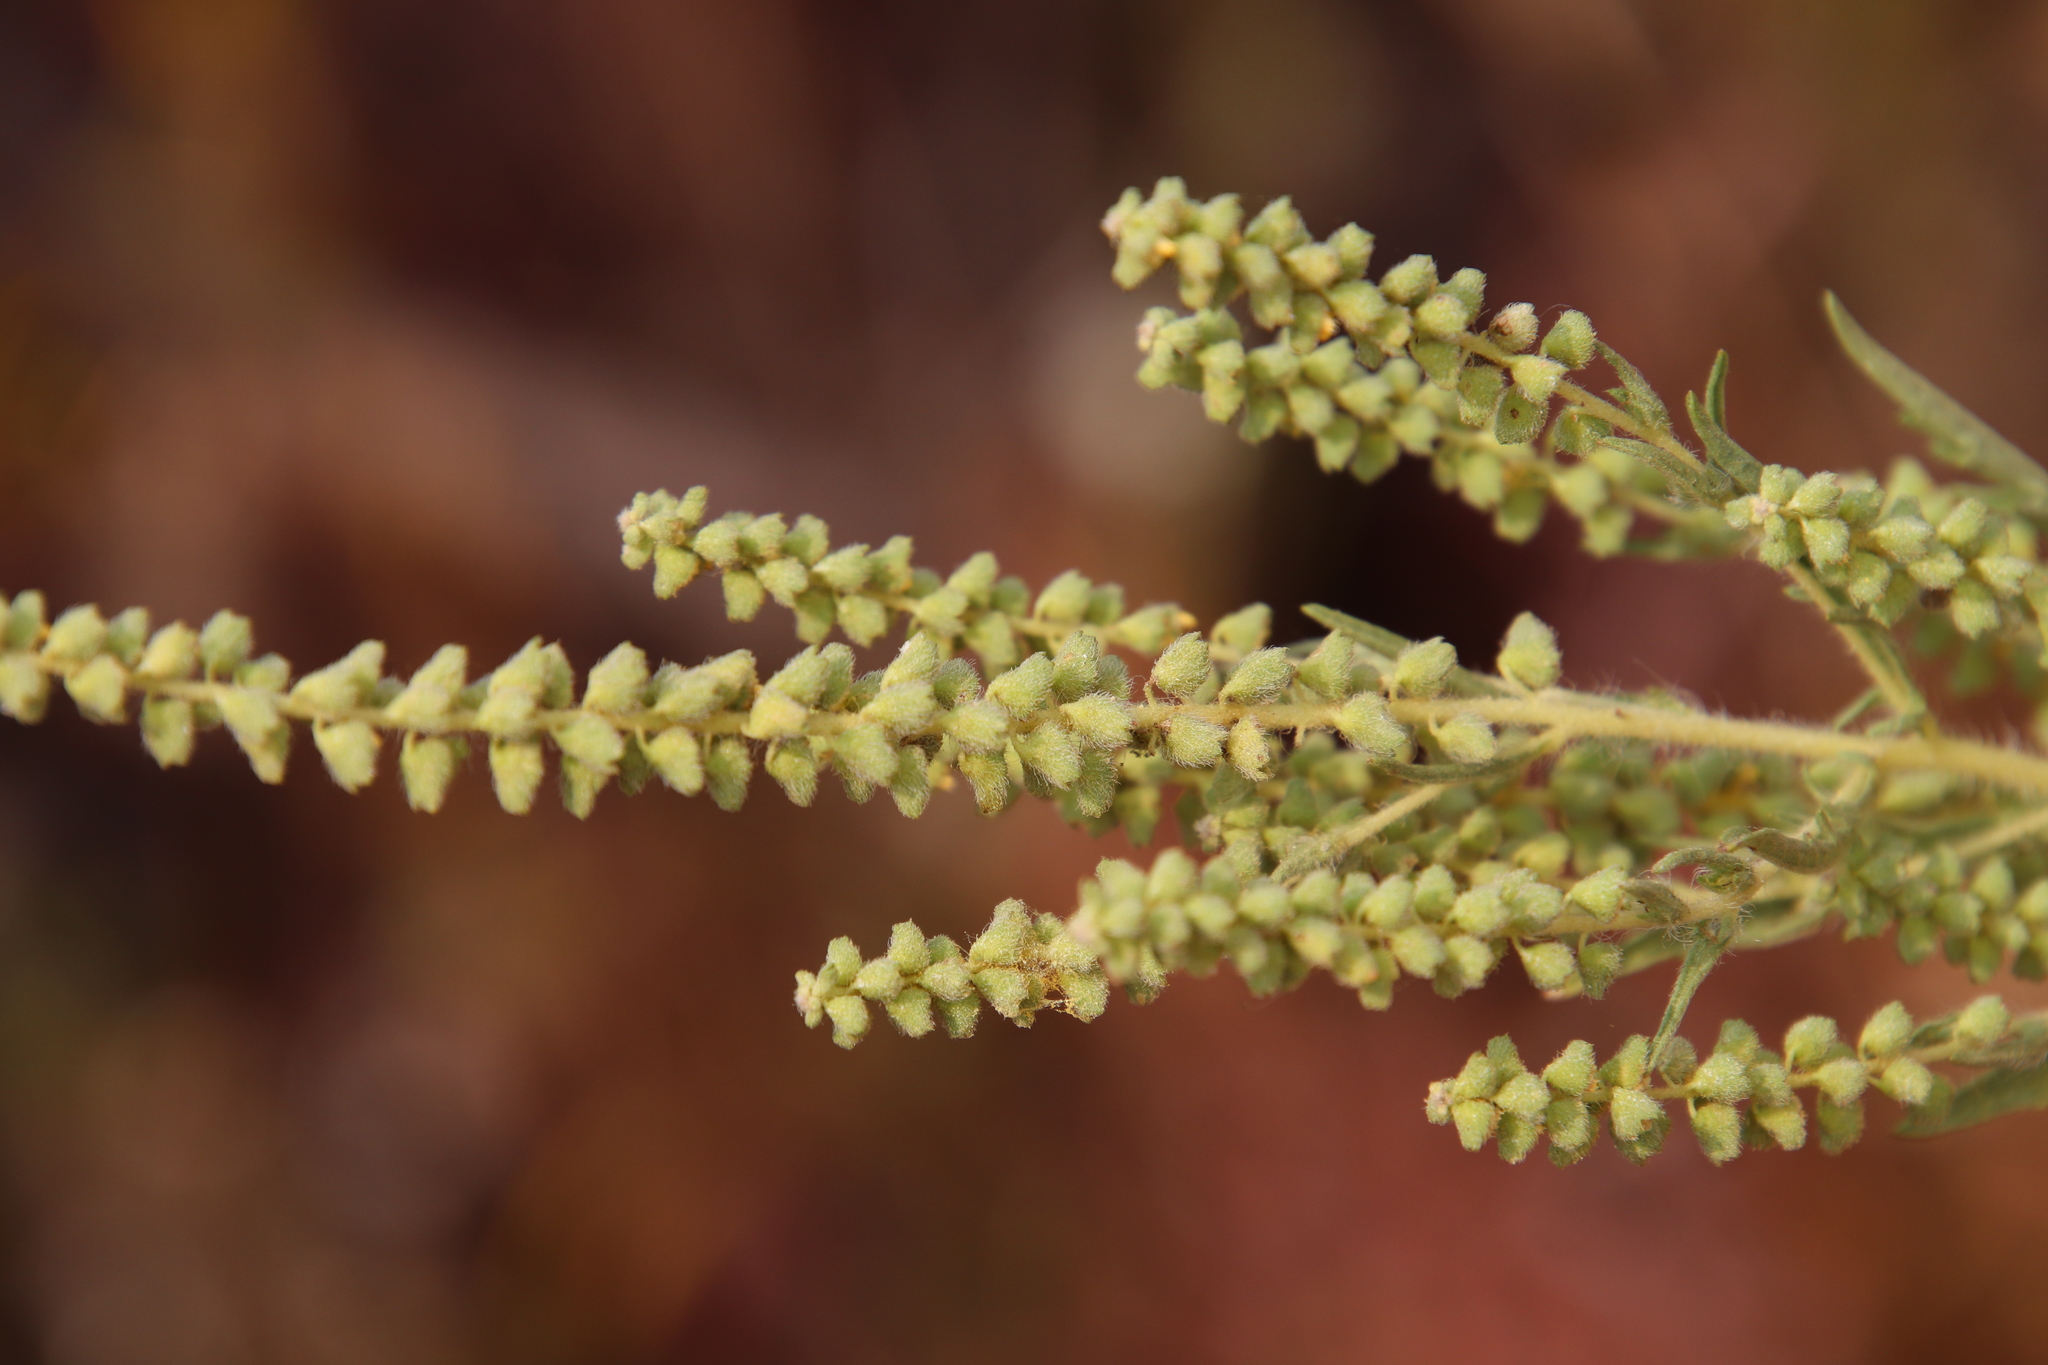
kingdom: Plantae
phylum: Tracheophyta
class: Magnoliopsida
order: Asterales
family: Asteraceae
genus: Ambrosia
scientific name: Ambrosia psilostachya
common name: Perennial ragweed
